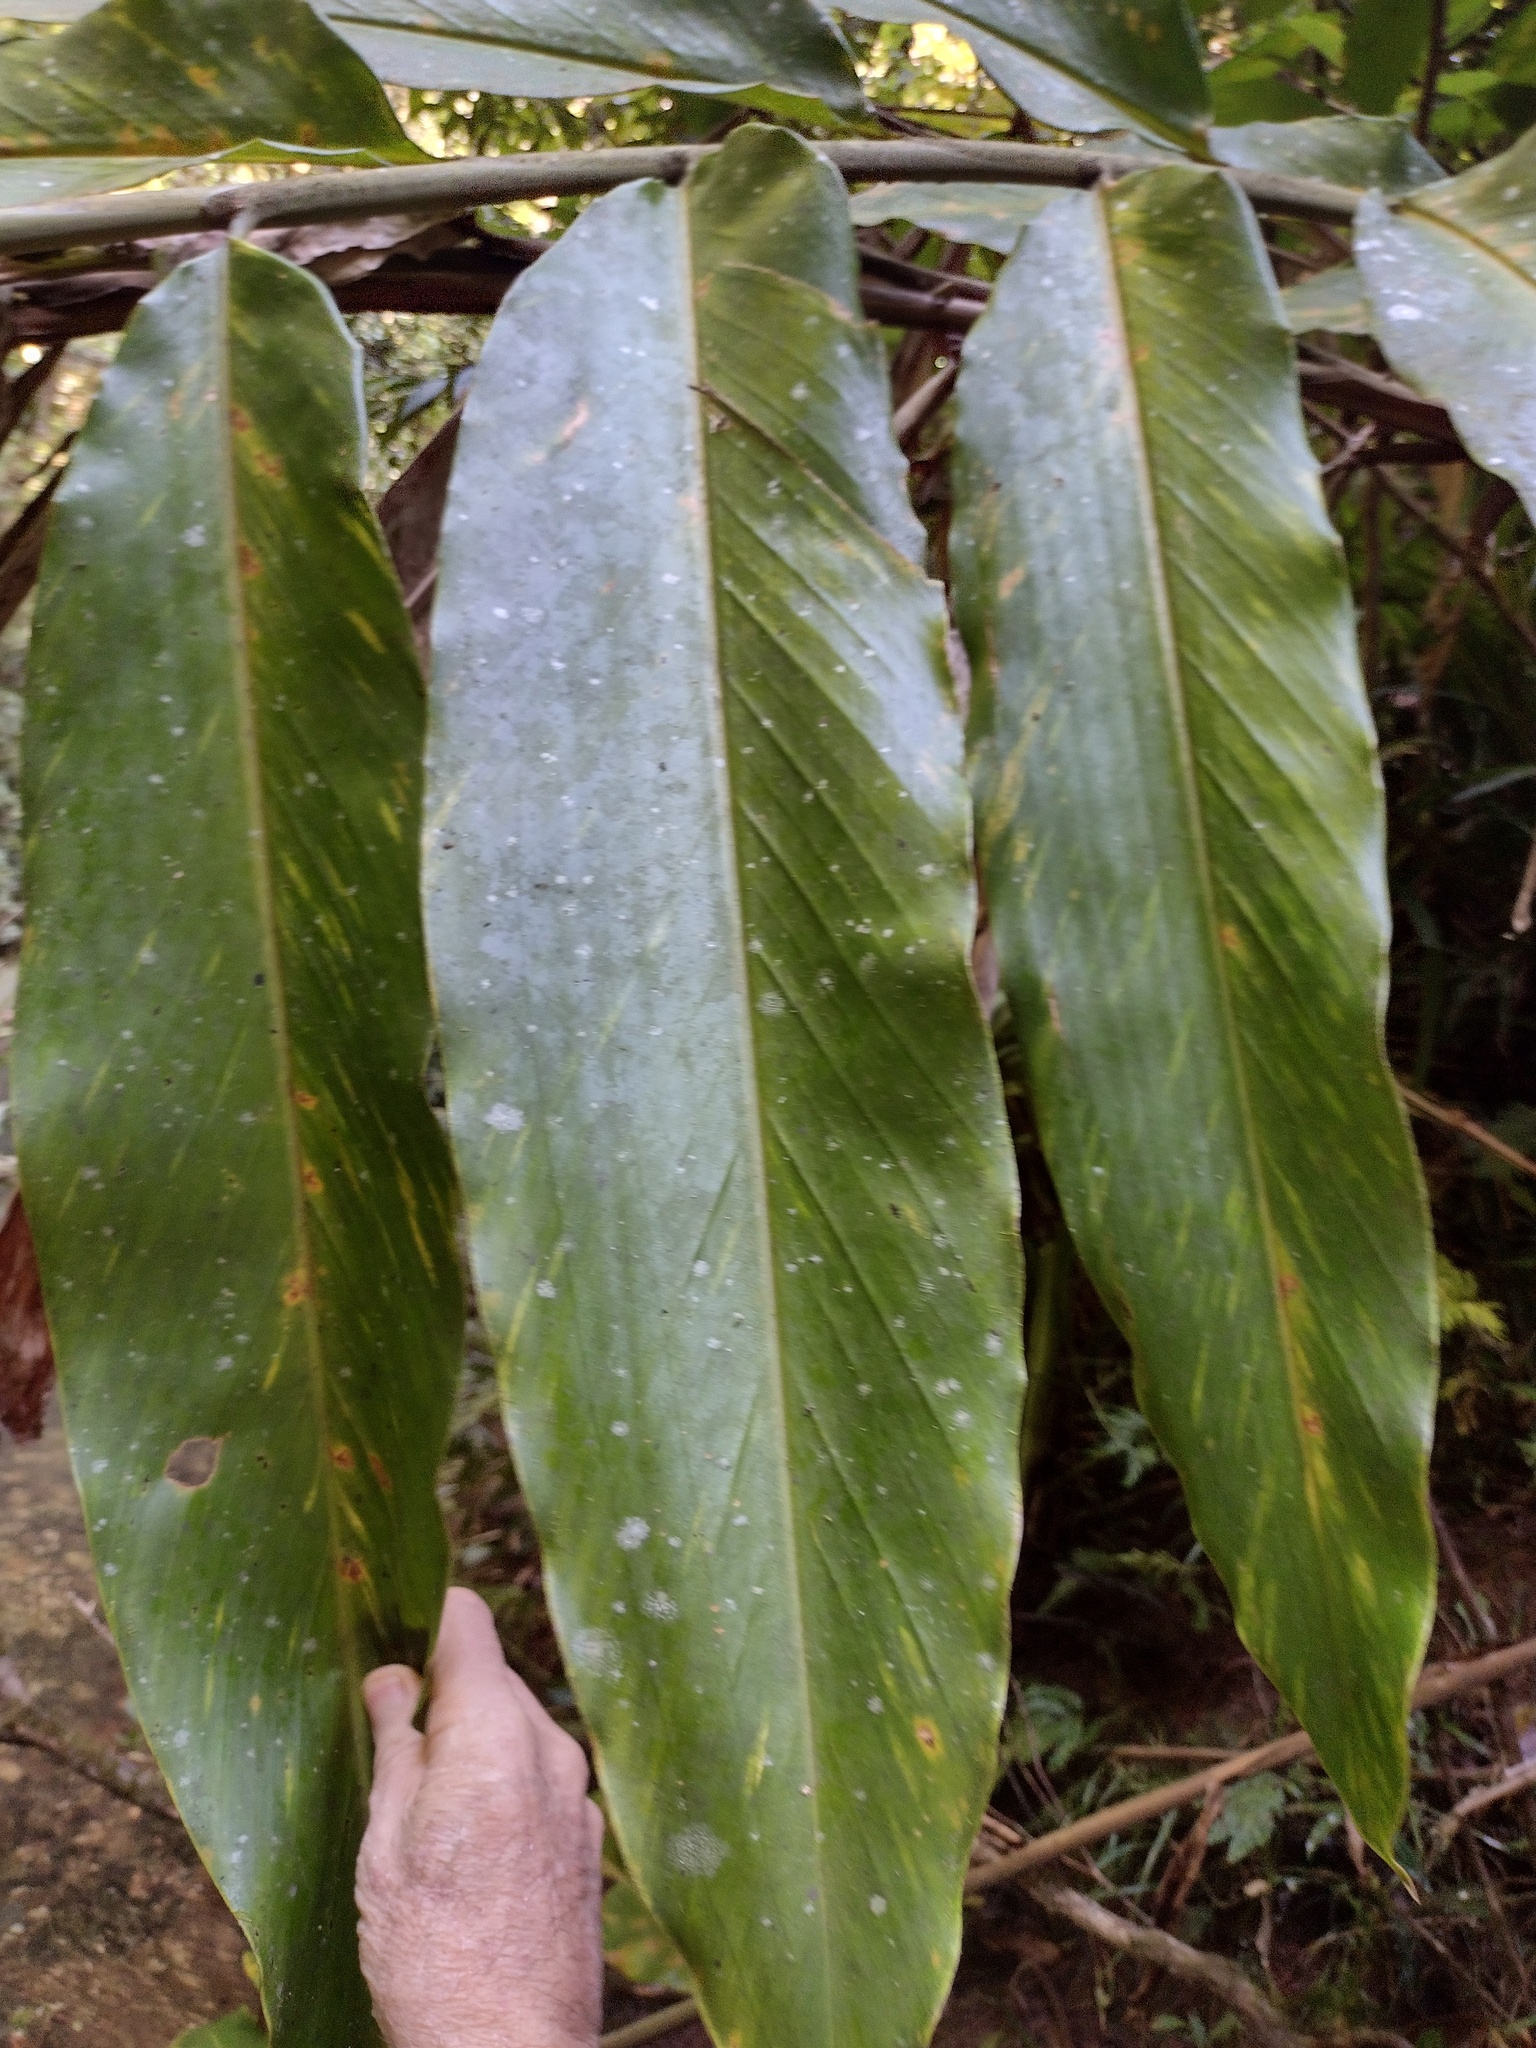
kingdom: Plantae
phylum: Tracheophyta
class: Liliopsida
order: Zingiberales
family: Zingiberaceae
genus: Alpinia
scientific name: Alpinia arctiflora
